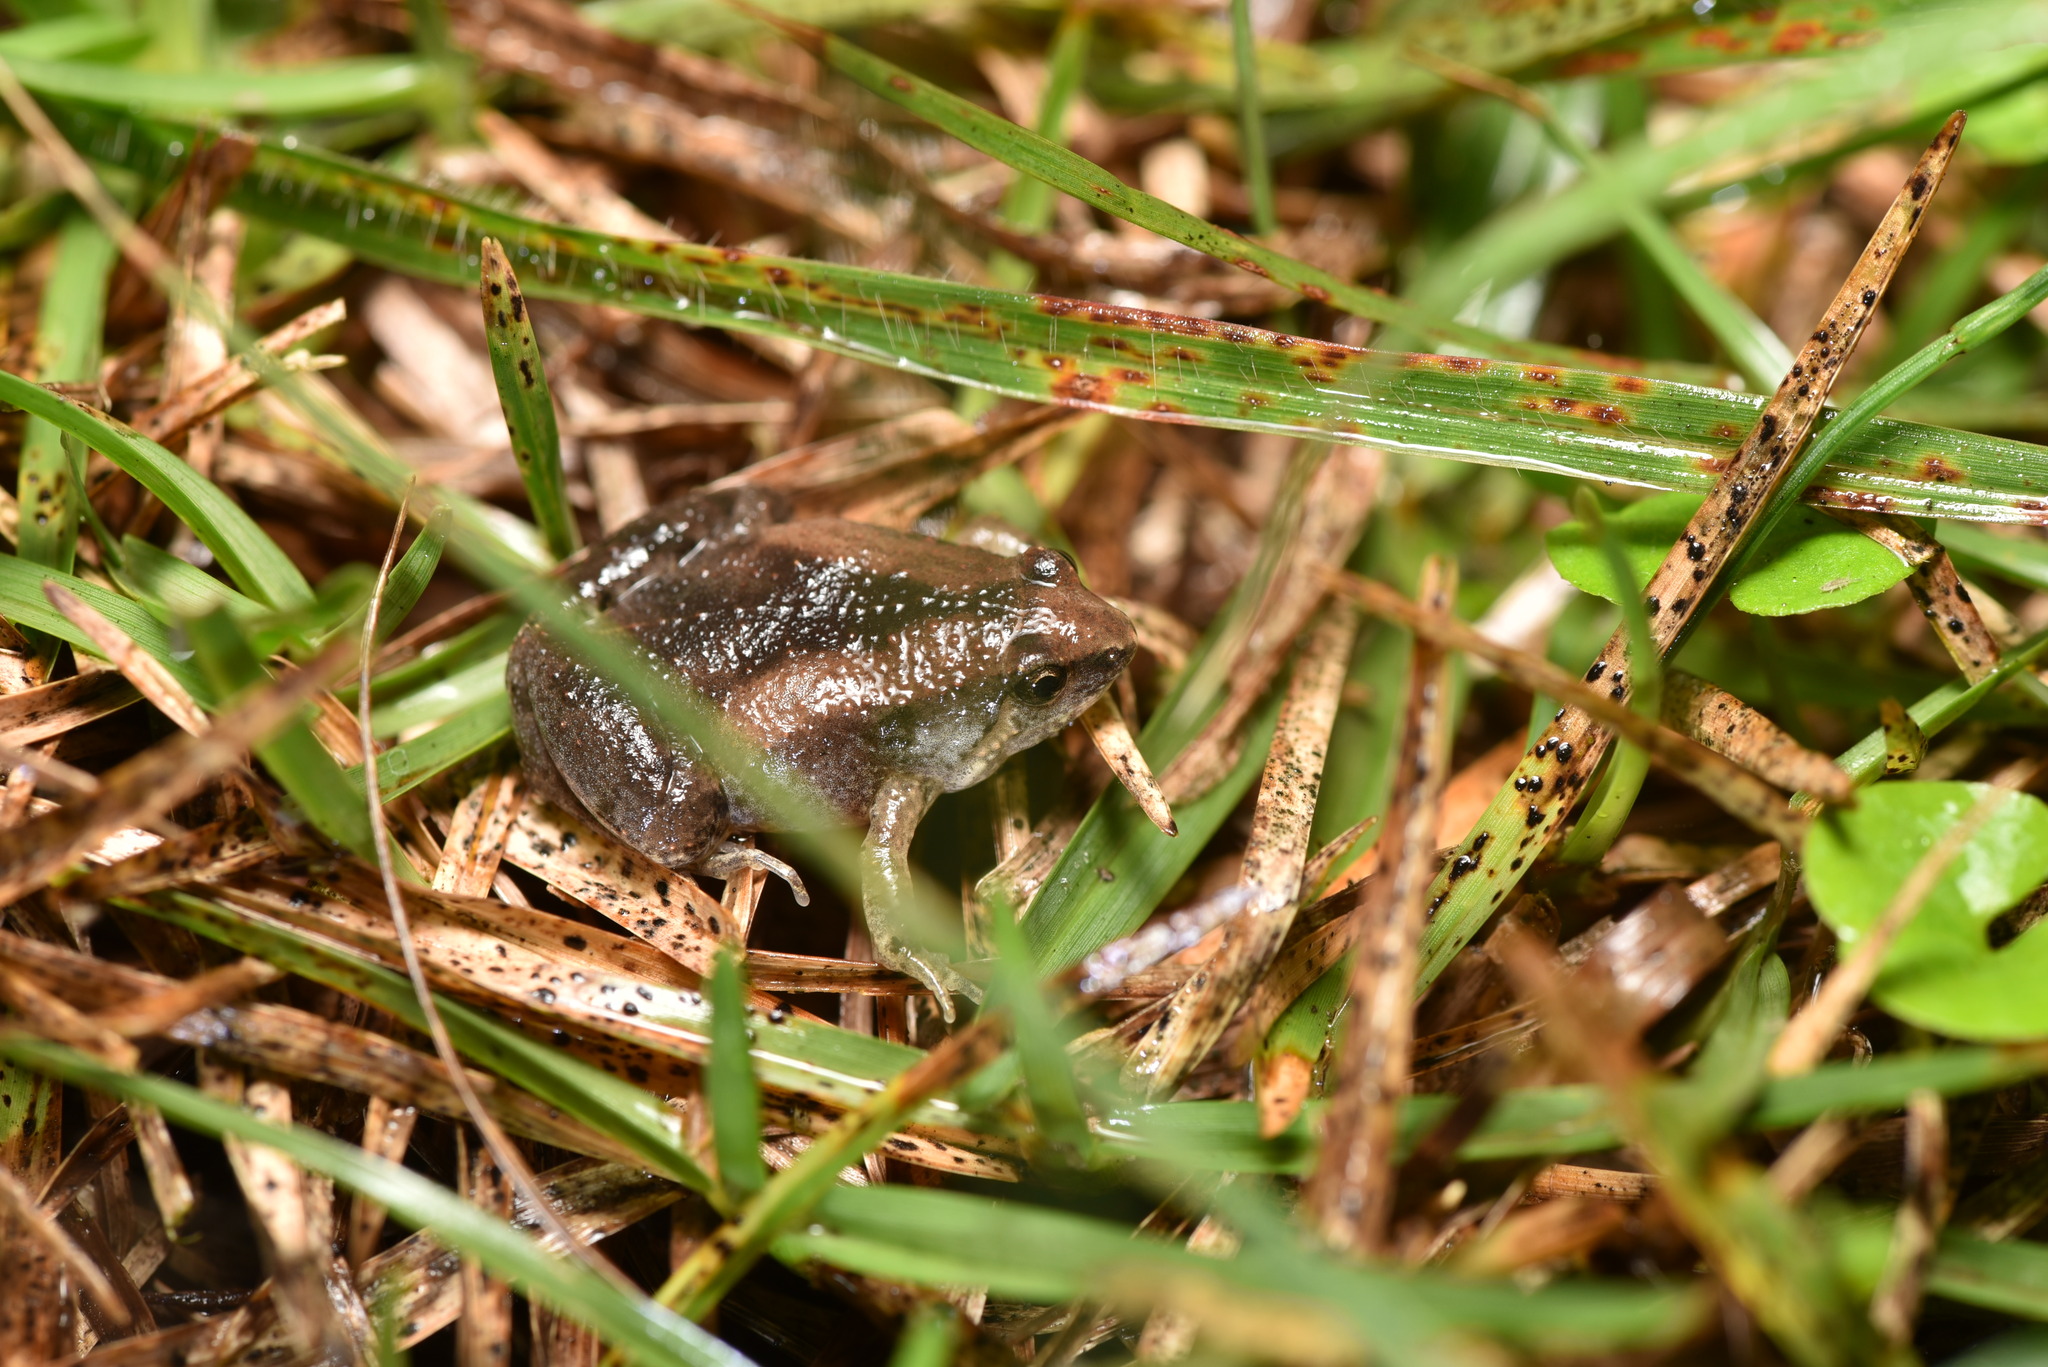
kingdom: Animalia
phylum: Chordata
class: Amphibia
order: Anura
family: Microhylidae
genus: Microhyla
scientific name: Microhyla fissipes
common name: Ornate narrow-mouthed frog
